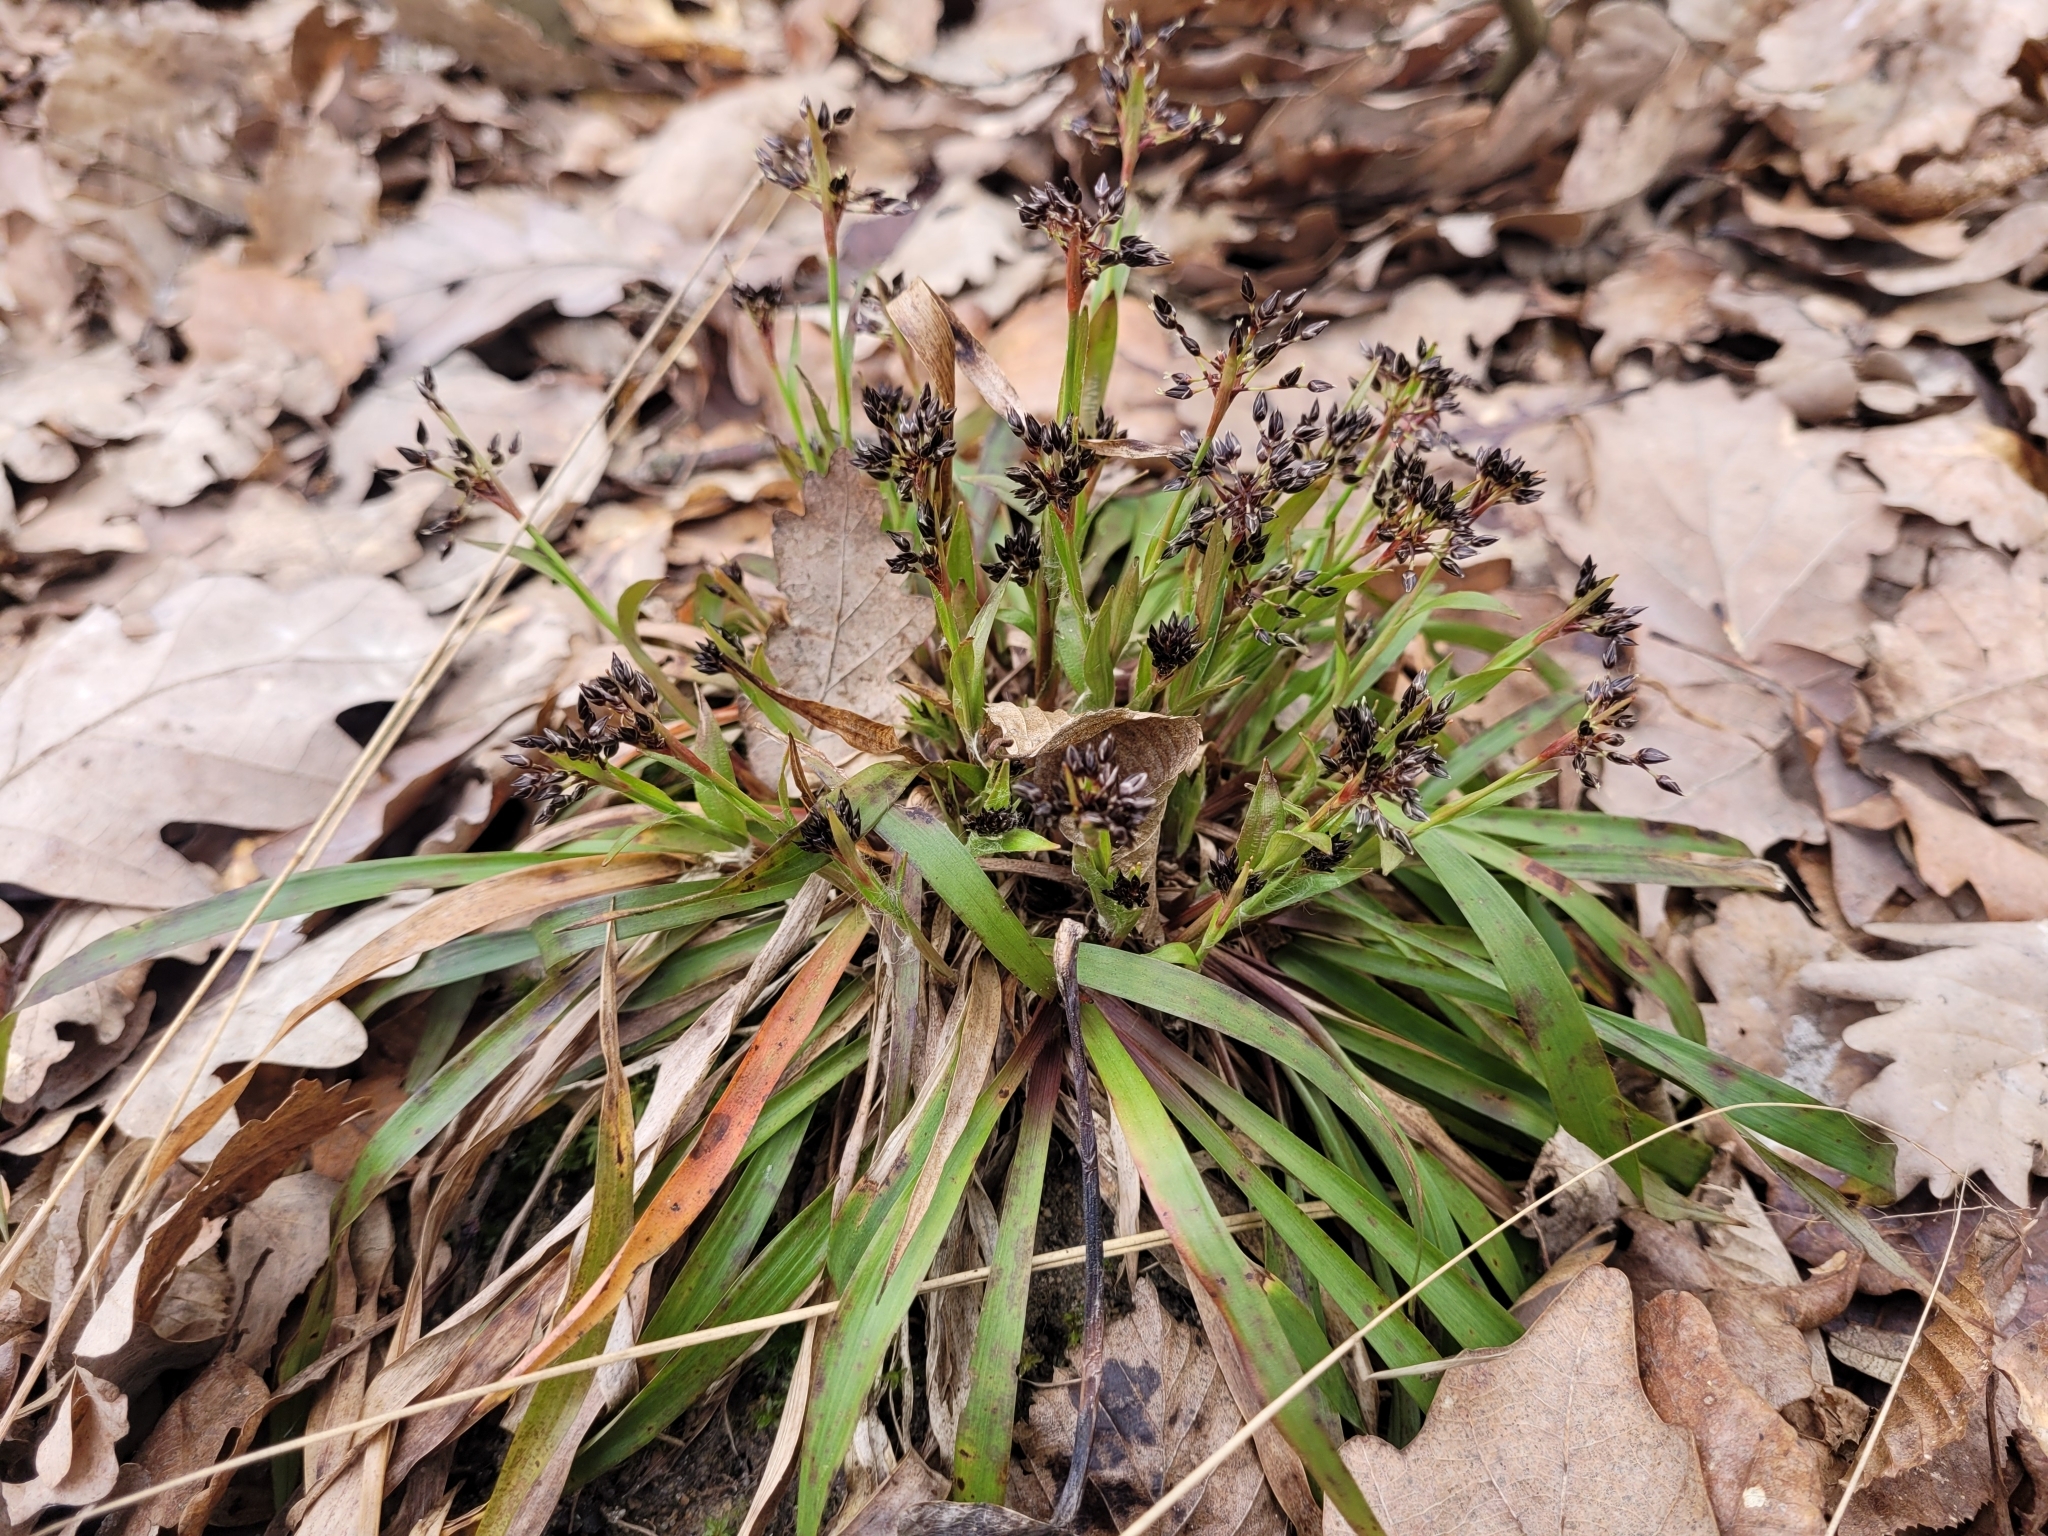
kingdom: Plantae
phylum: Tracheophyta
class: Liliopsida
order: Poales
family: Juncaceae
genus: Luzula
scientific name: Luzula pilosa
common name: Hairy wood-rush
